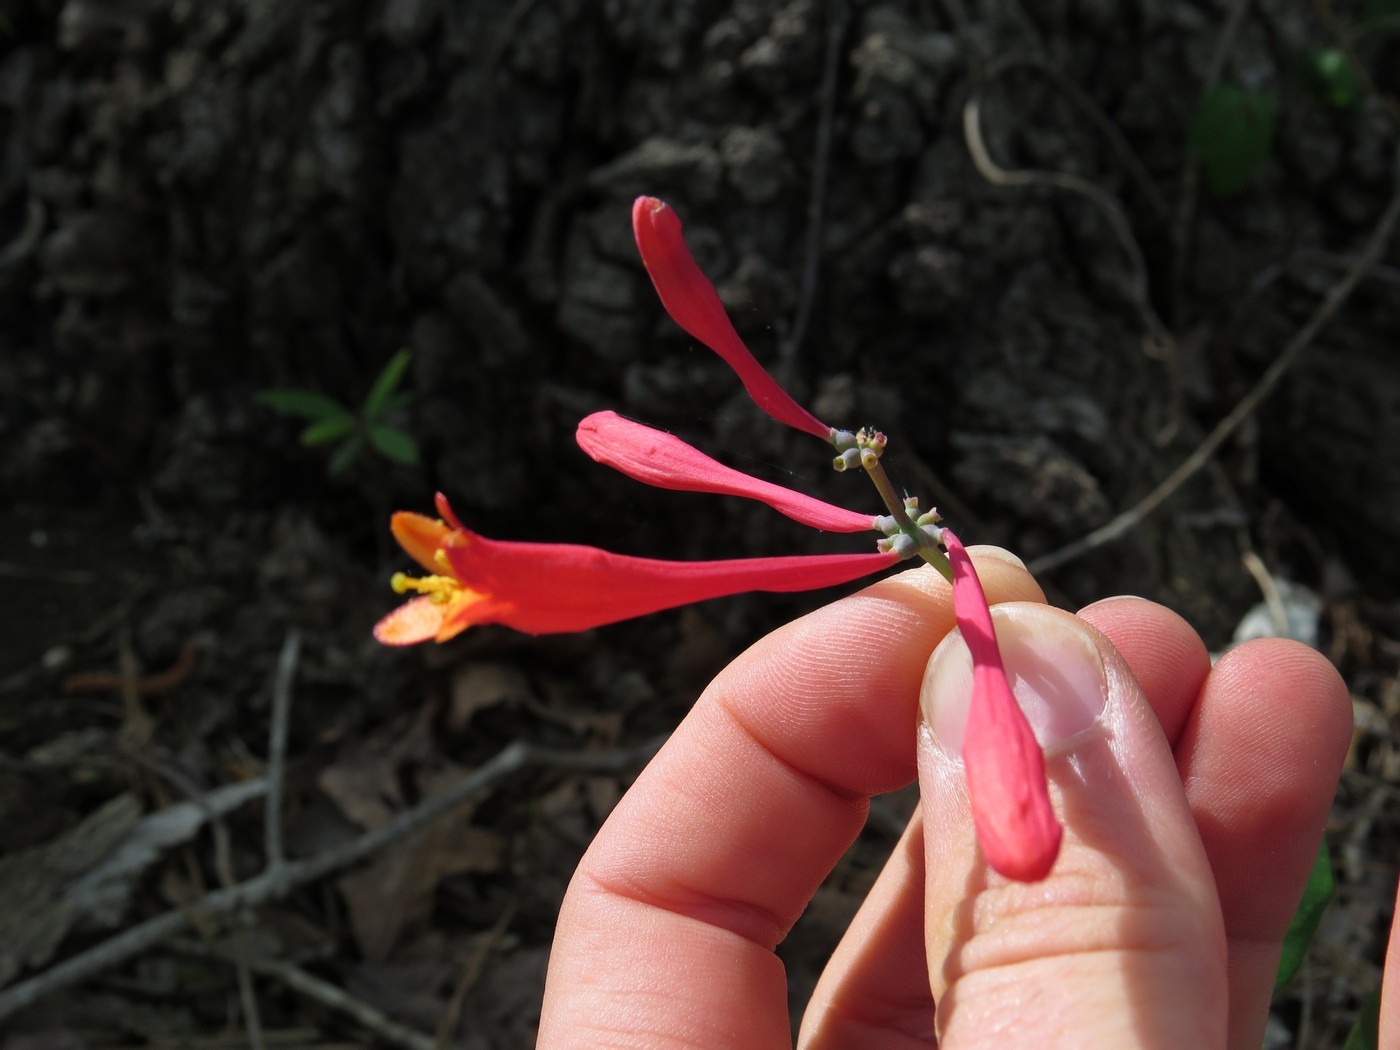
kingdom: Plantae
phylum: Tracheophyta
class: Magnoliopsida
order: Dipsacales
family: Caprifoliaceae
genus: Lonicera
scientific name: Lonicera sempervirens
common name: Coral honeysuckle
